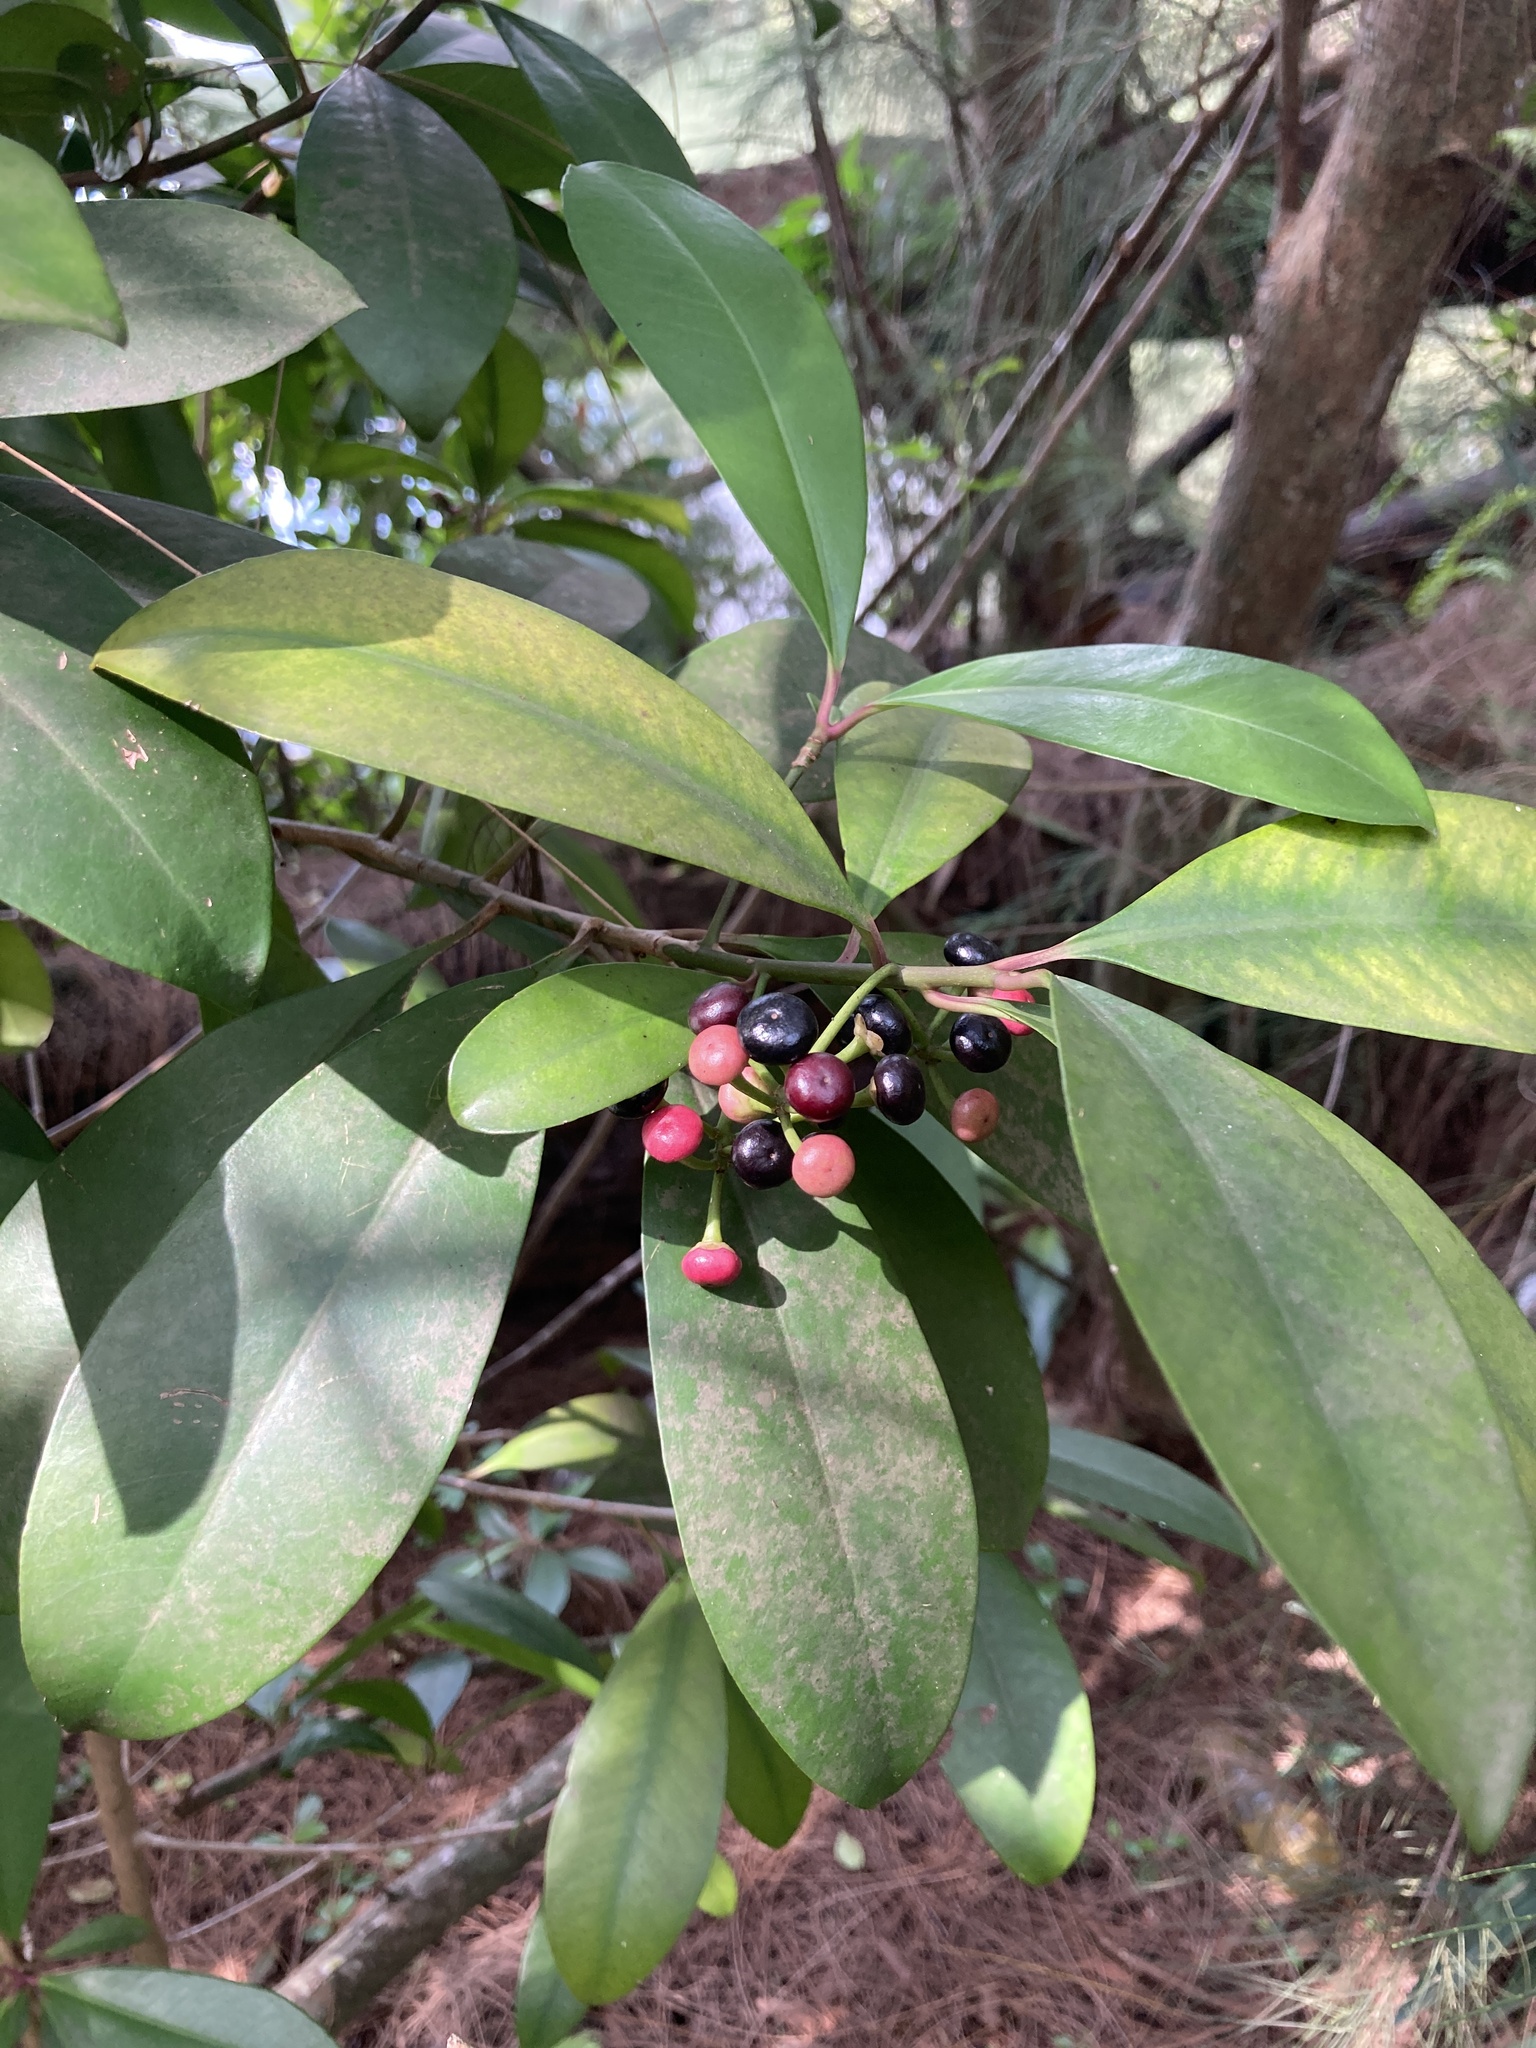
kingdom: Plantae
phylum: Tracheophyta
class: Magnoliopsida
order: Ericales
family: Primulaceae
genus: Ardisia
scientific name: Ardisia elliptica
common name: Shoebutton
